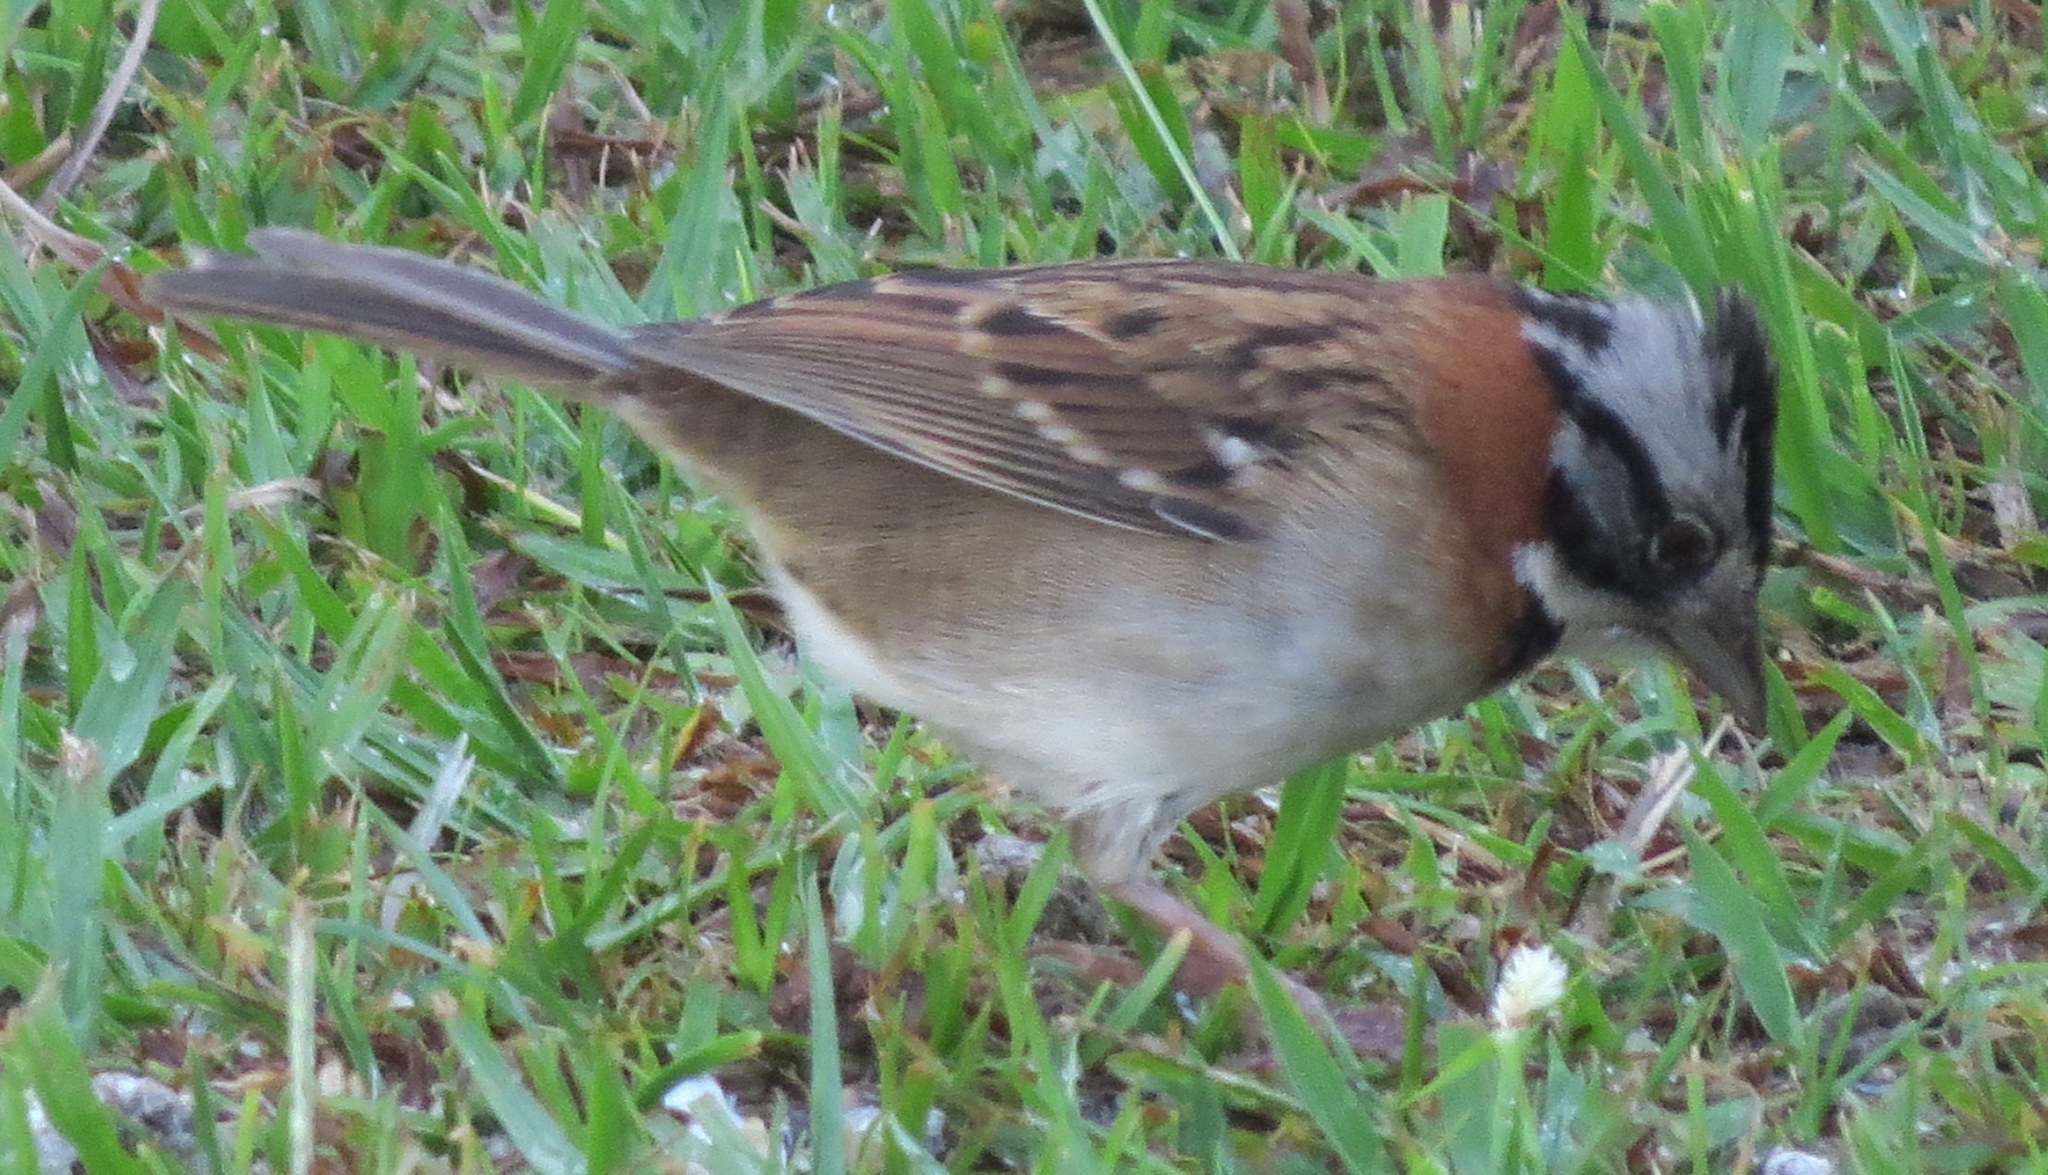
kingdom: Animalia
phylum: Chordata
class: Aves
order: Passeriformes
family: Passerellidae
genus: Zonotrichia
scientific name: Zonotrichia capensis
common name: Rufous-collared sparrow
